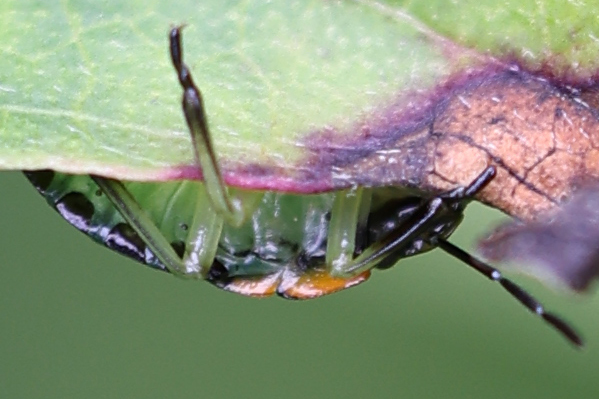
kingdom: Animalia
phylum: Arthropoda
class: Insecta
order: Hemiptera
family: Pentatomidae
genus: Chinavia
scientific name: Chinavia hilaris
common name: Green stink bug
